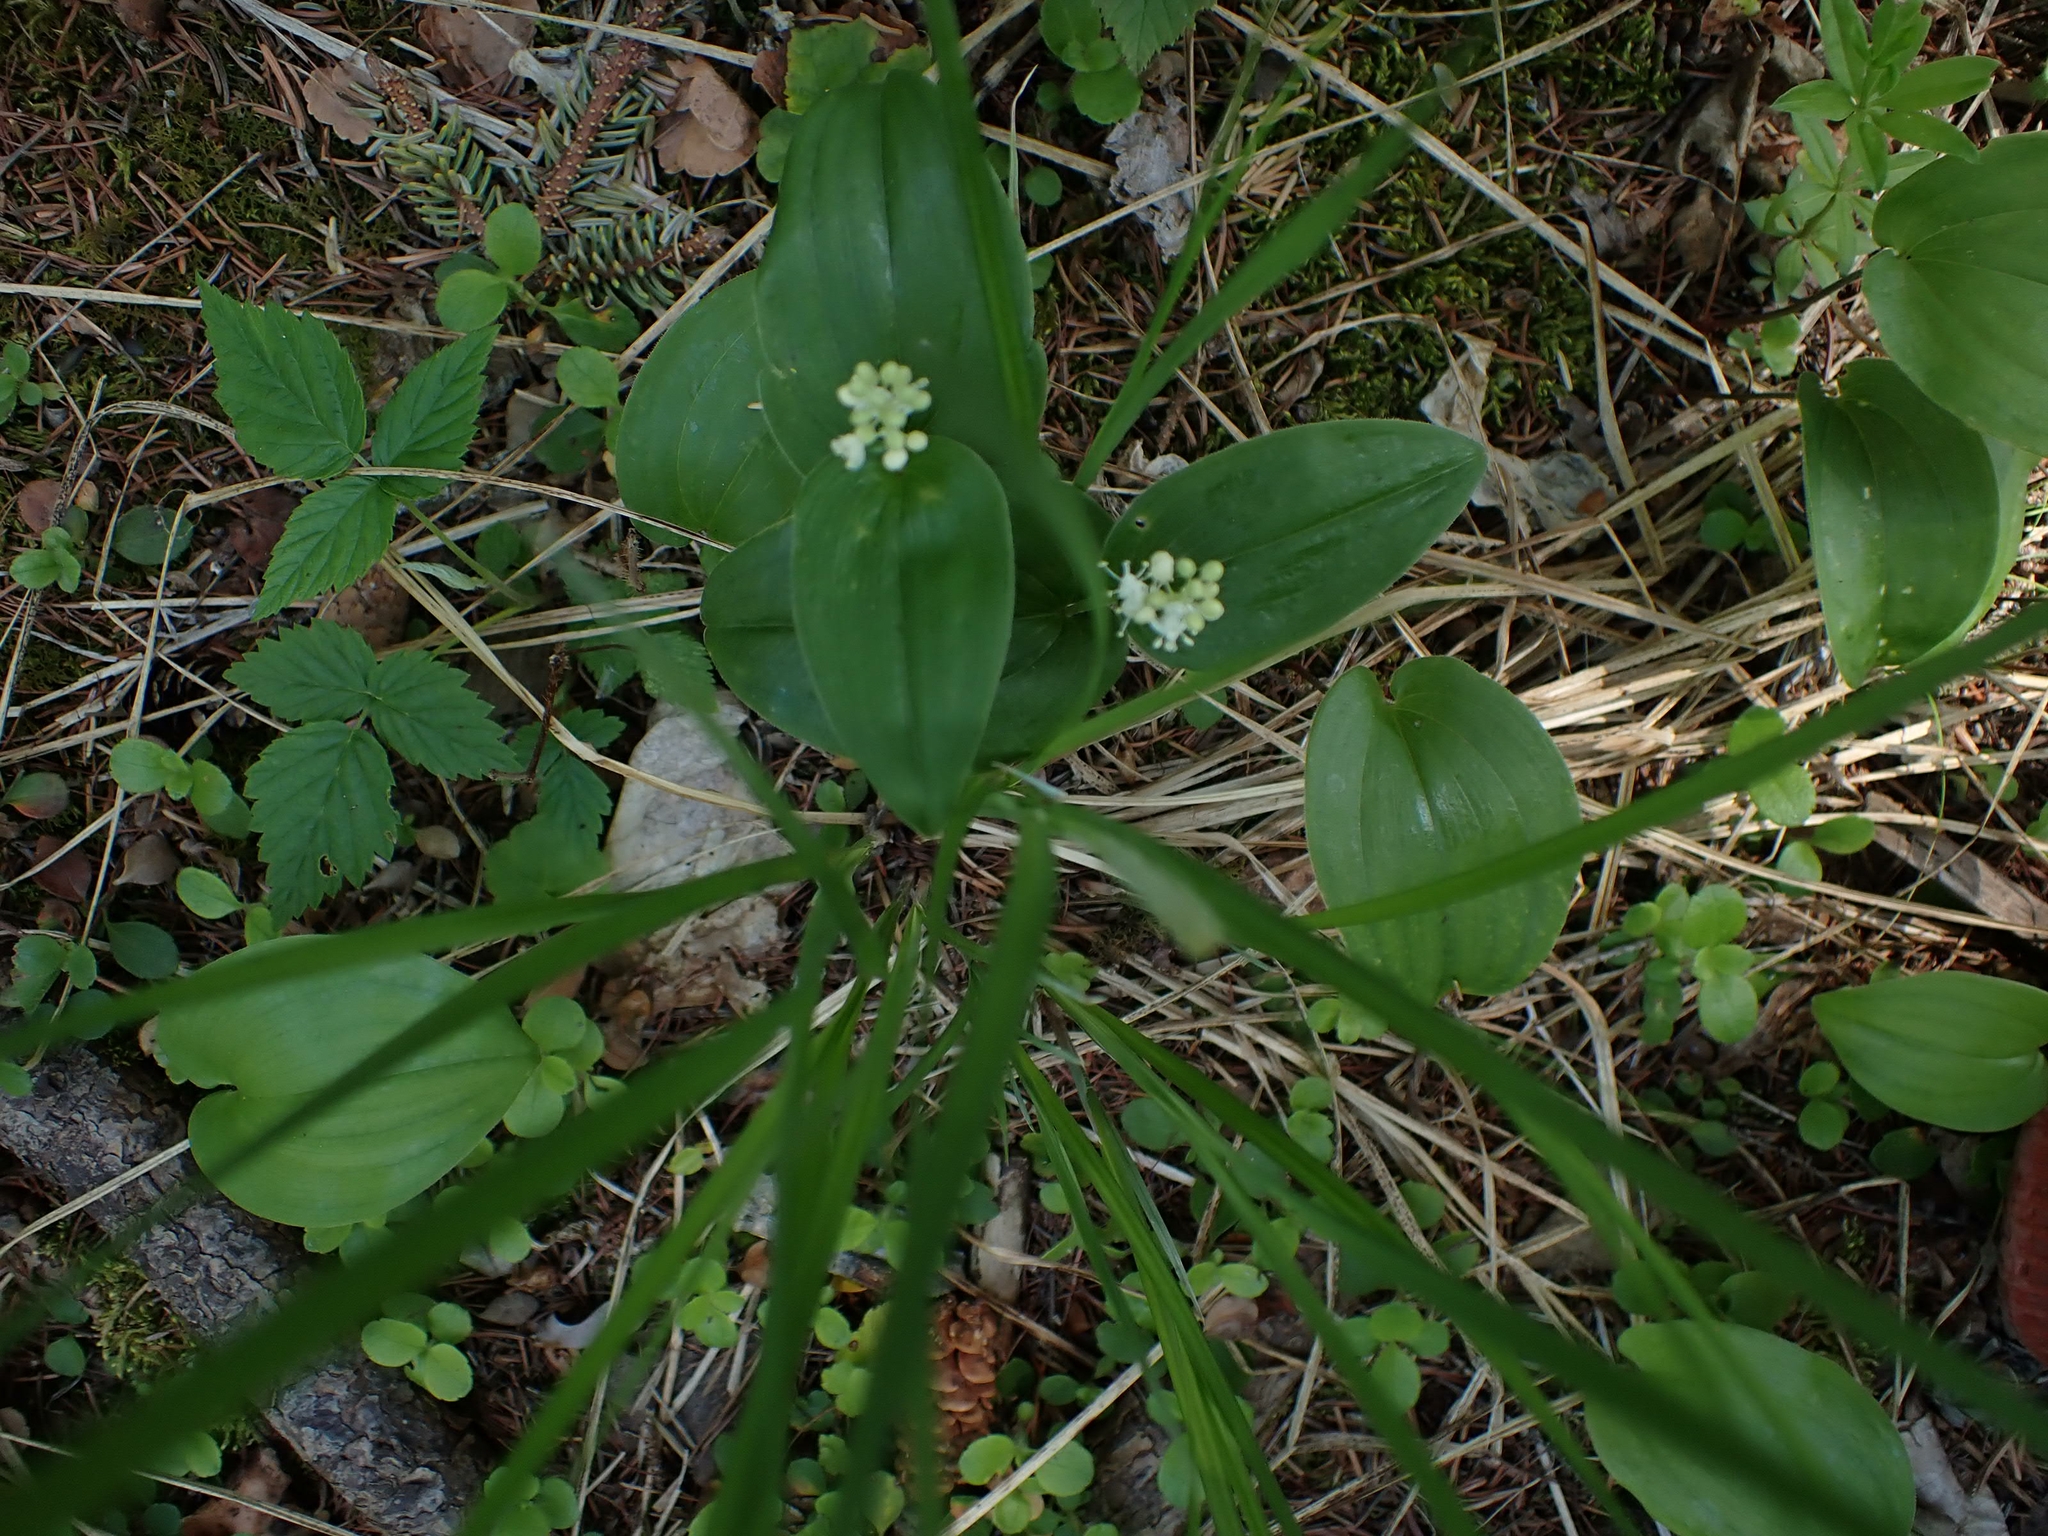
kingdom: Plantae
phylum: Tracheophyta
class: Liliopsida
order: Asparagales
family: Asparagaceae
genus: Maianthemum
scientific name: Maianthemum canadense
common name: False lily-of-the-valley
